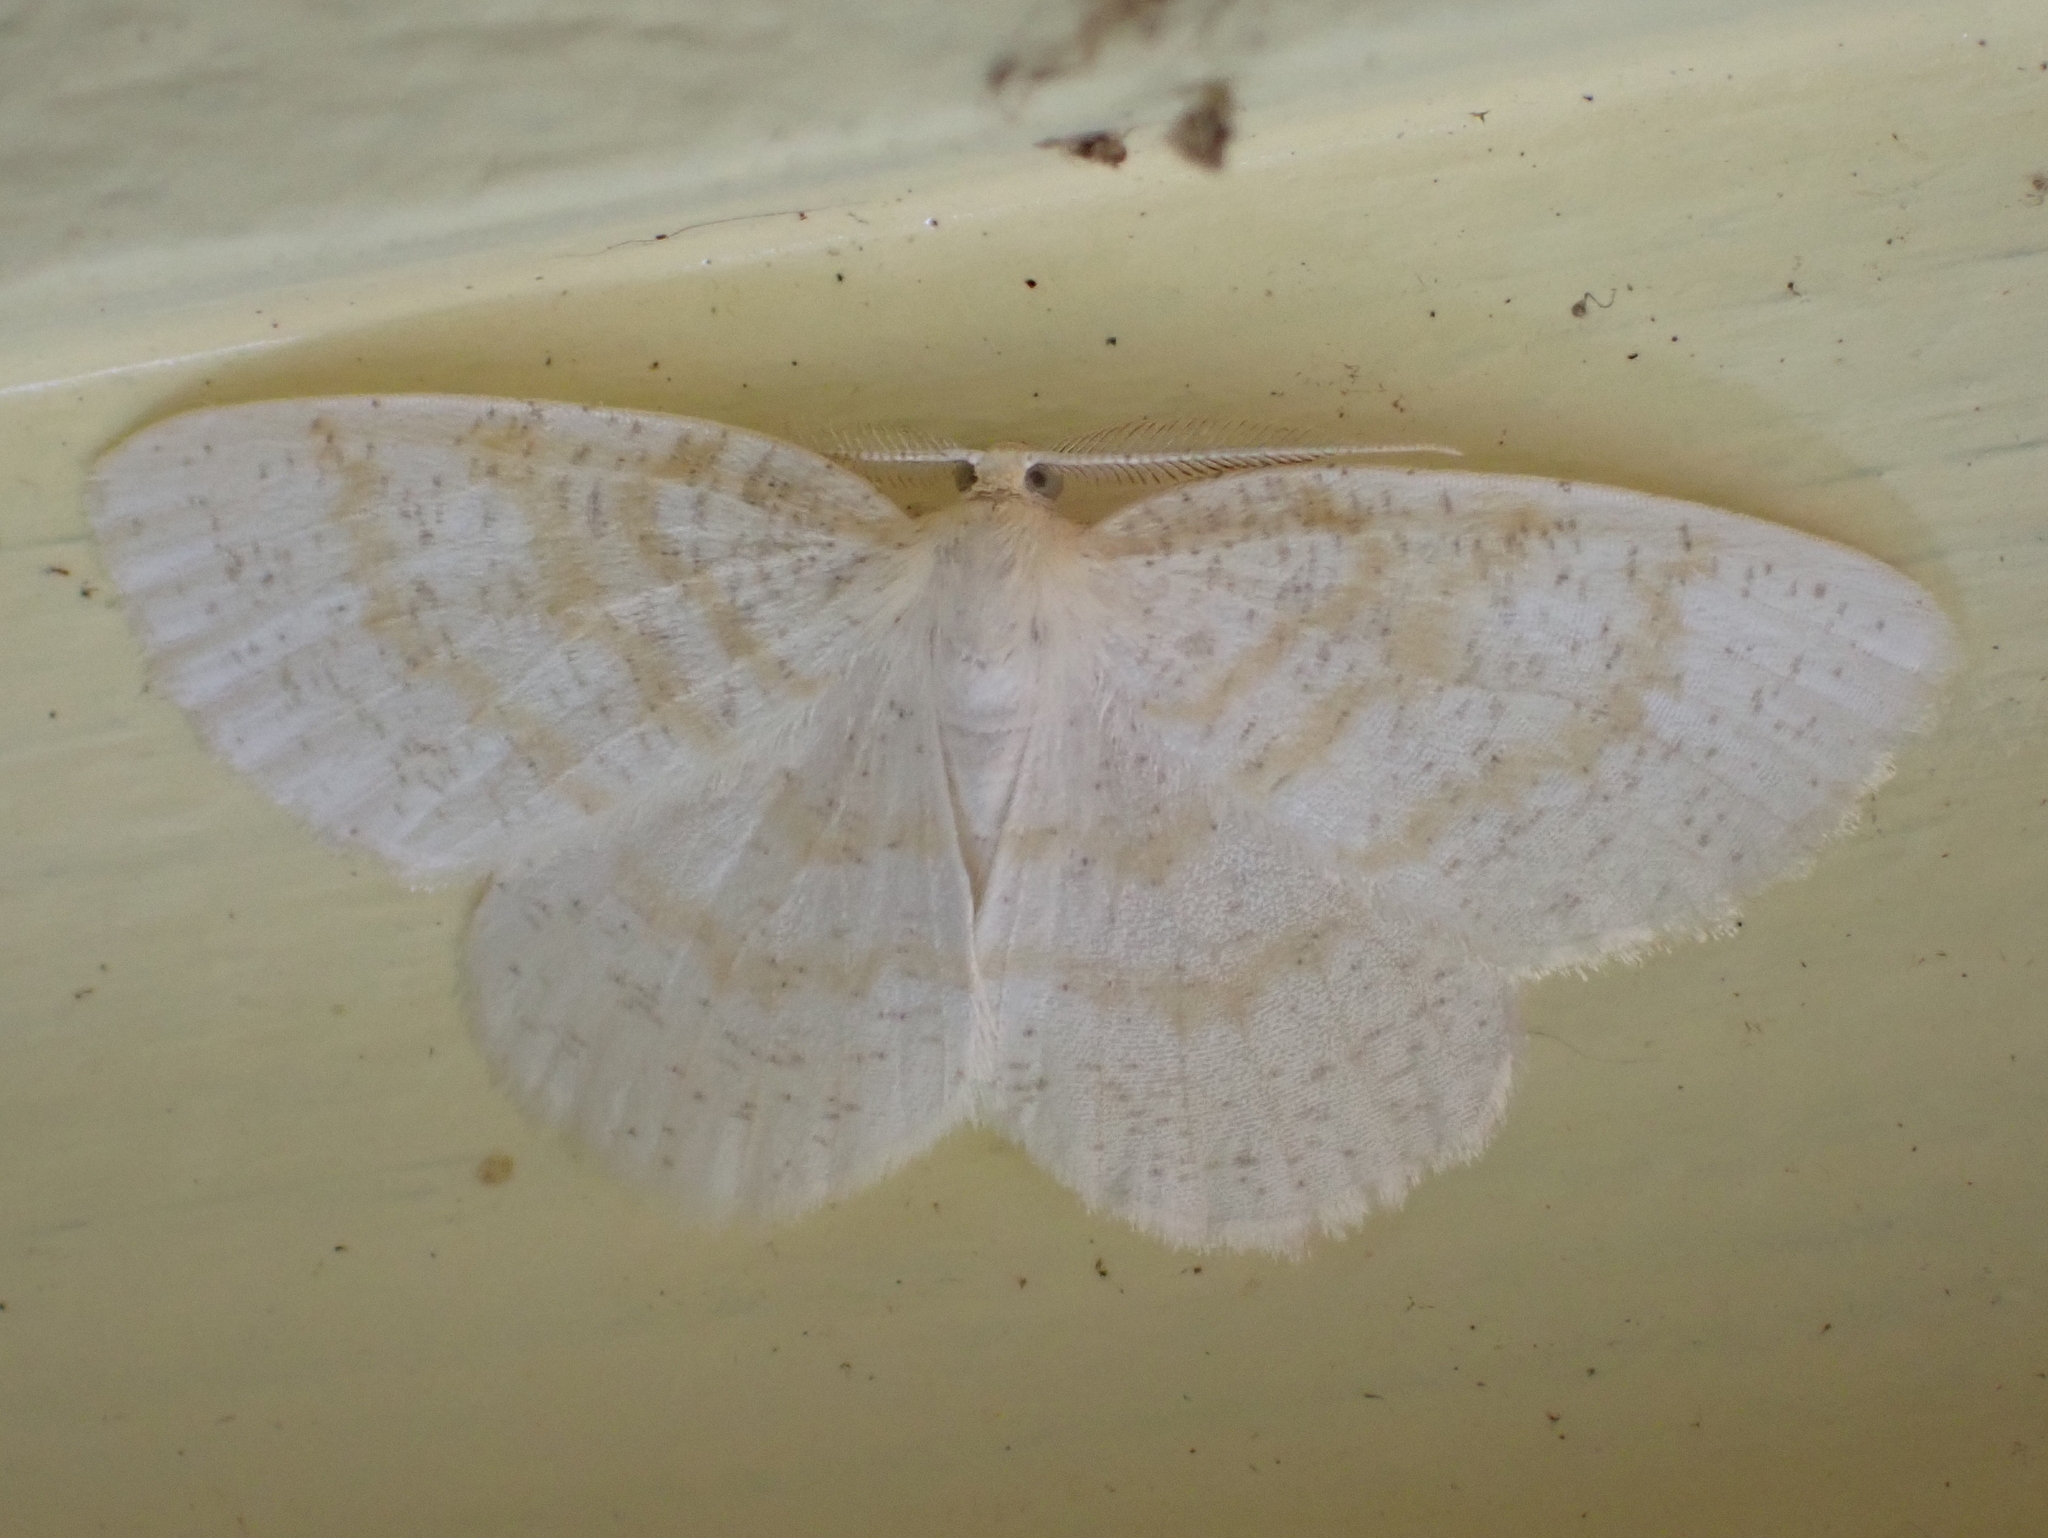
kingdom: Animalia
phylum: Arthropoda
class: Insecta
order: Lepidoptera
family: Geometridae
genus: Cabera
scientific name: Cabera erythemaria
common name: Yellow-dusted cream moth
